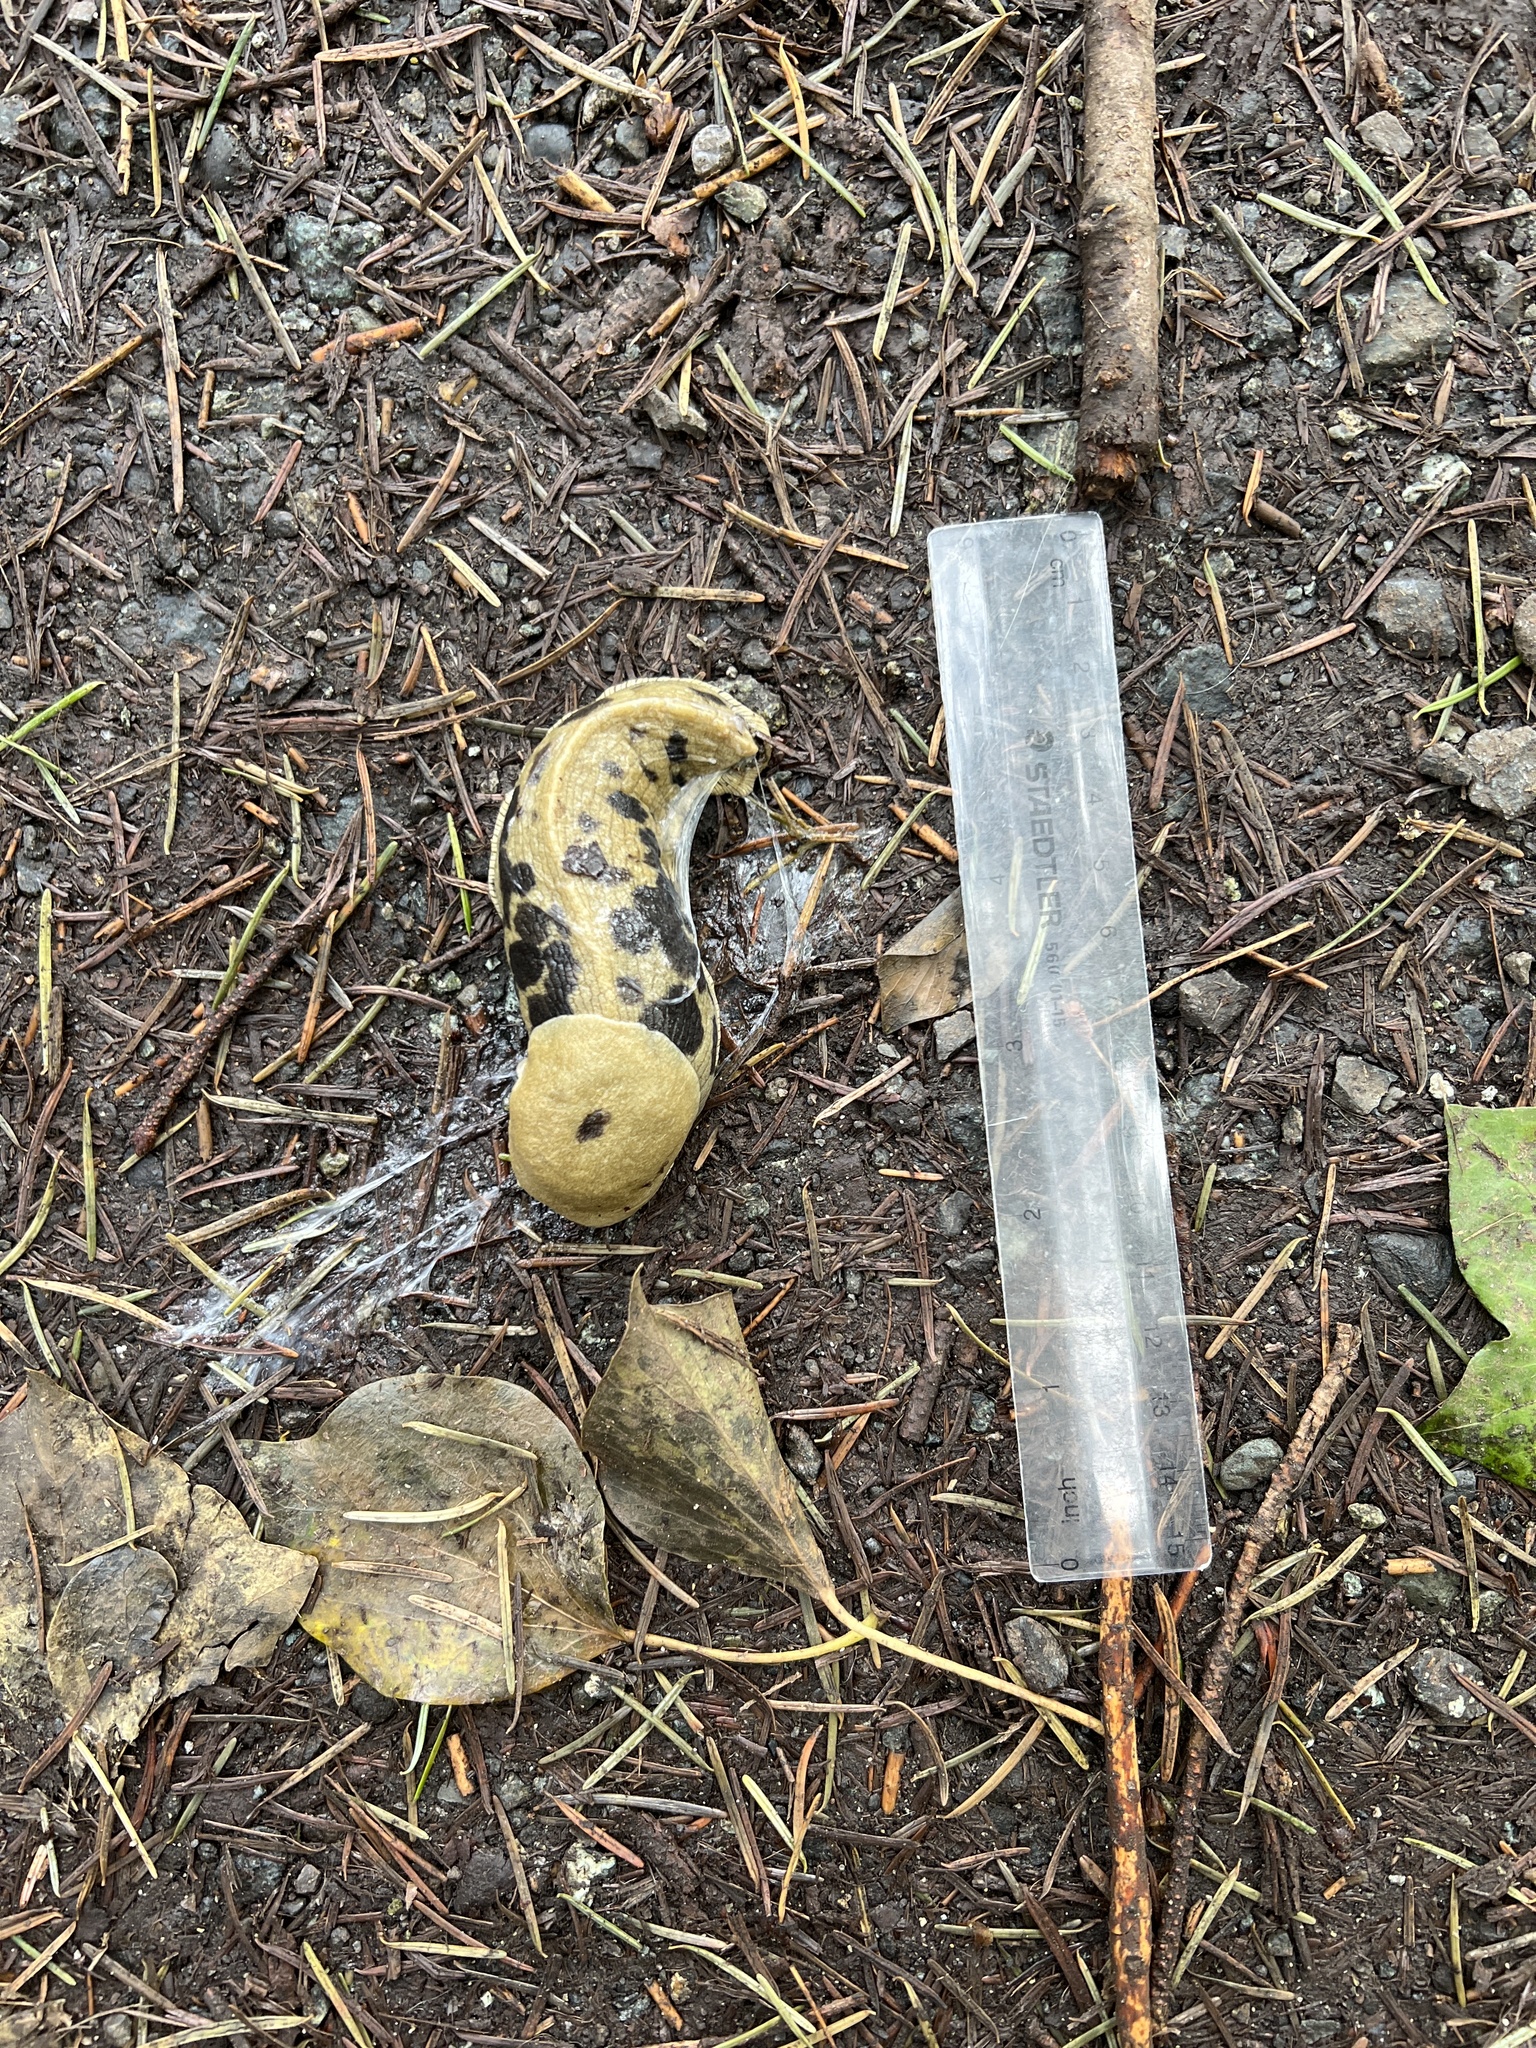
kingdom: Animalia
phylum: Mollusca
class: Gastropoda
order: Stylommatophora
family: Ariolimacidae
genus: Ariolimax
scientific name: Ariolimax columbianus
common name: Pacific banana slug
